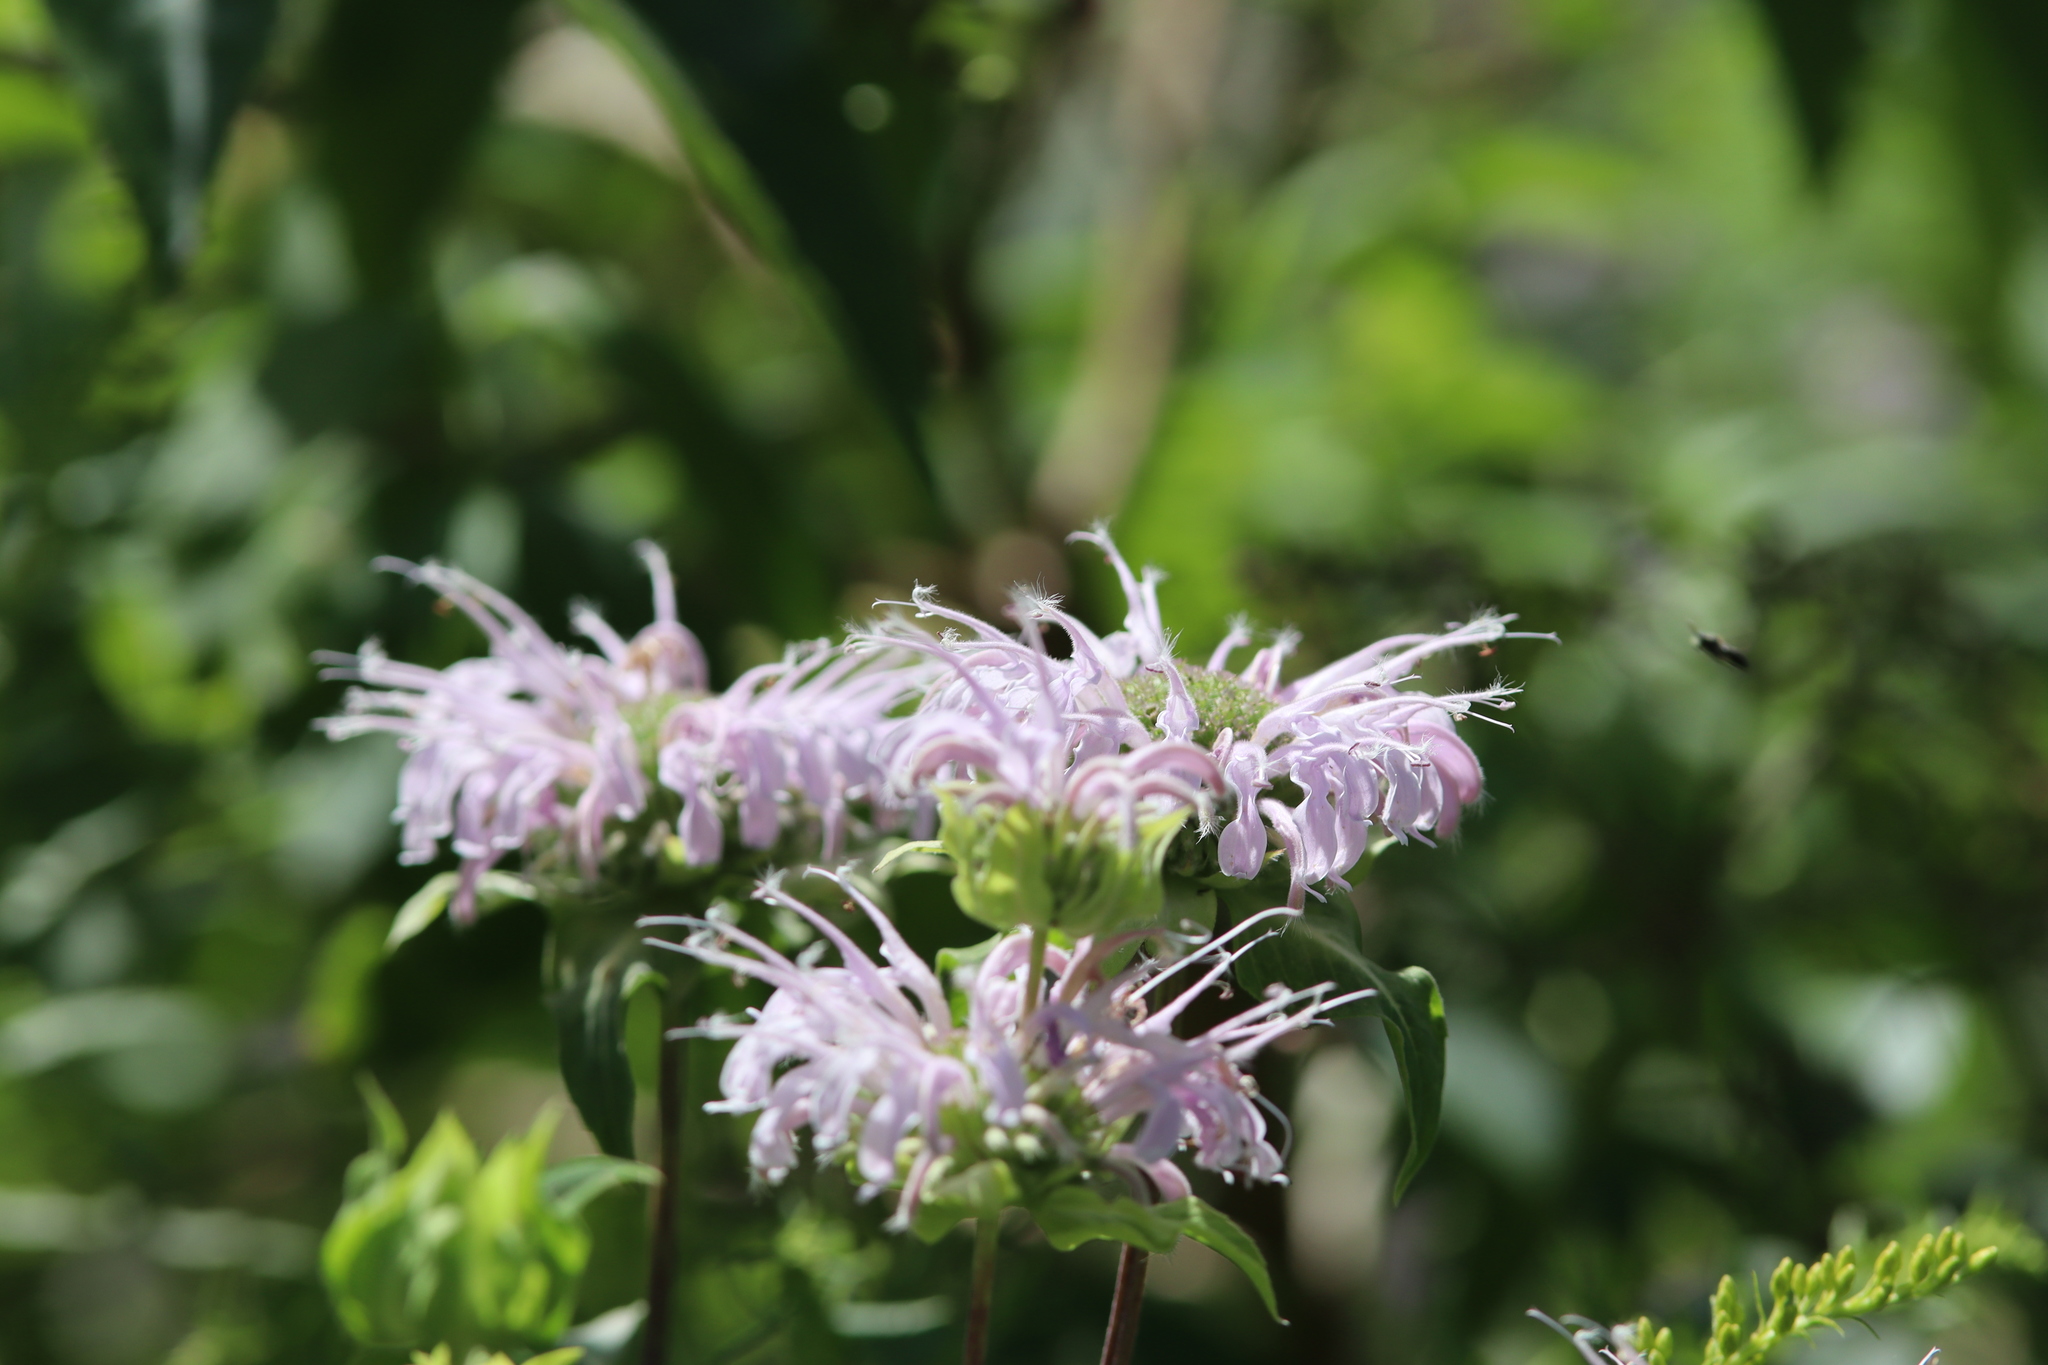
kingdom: Plantae
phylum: Tracheophyta
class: Magnoliopsida
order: Lamiales
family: Lamiaceae
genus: Monarda
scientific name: Monarda fistulosa
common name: Purple beebalm
